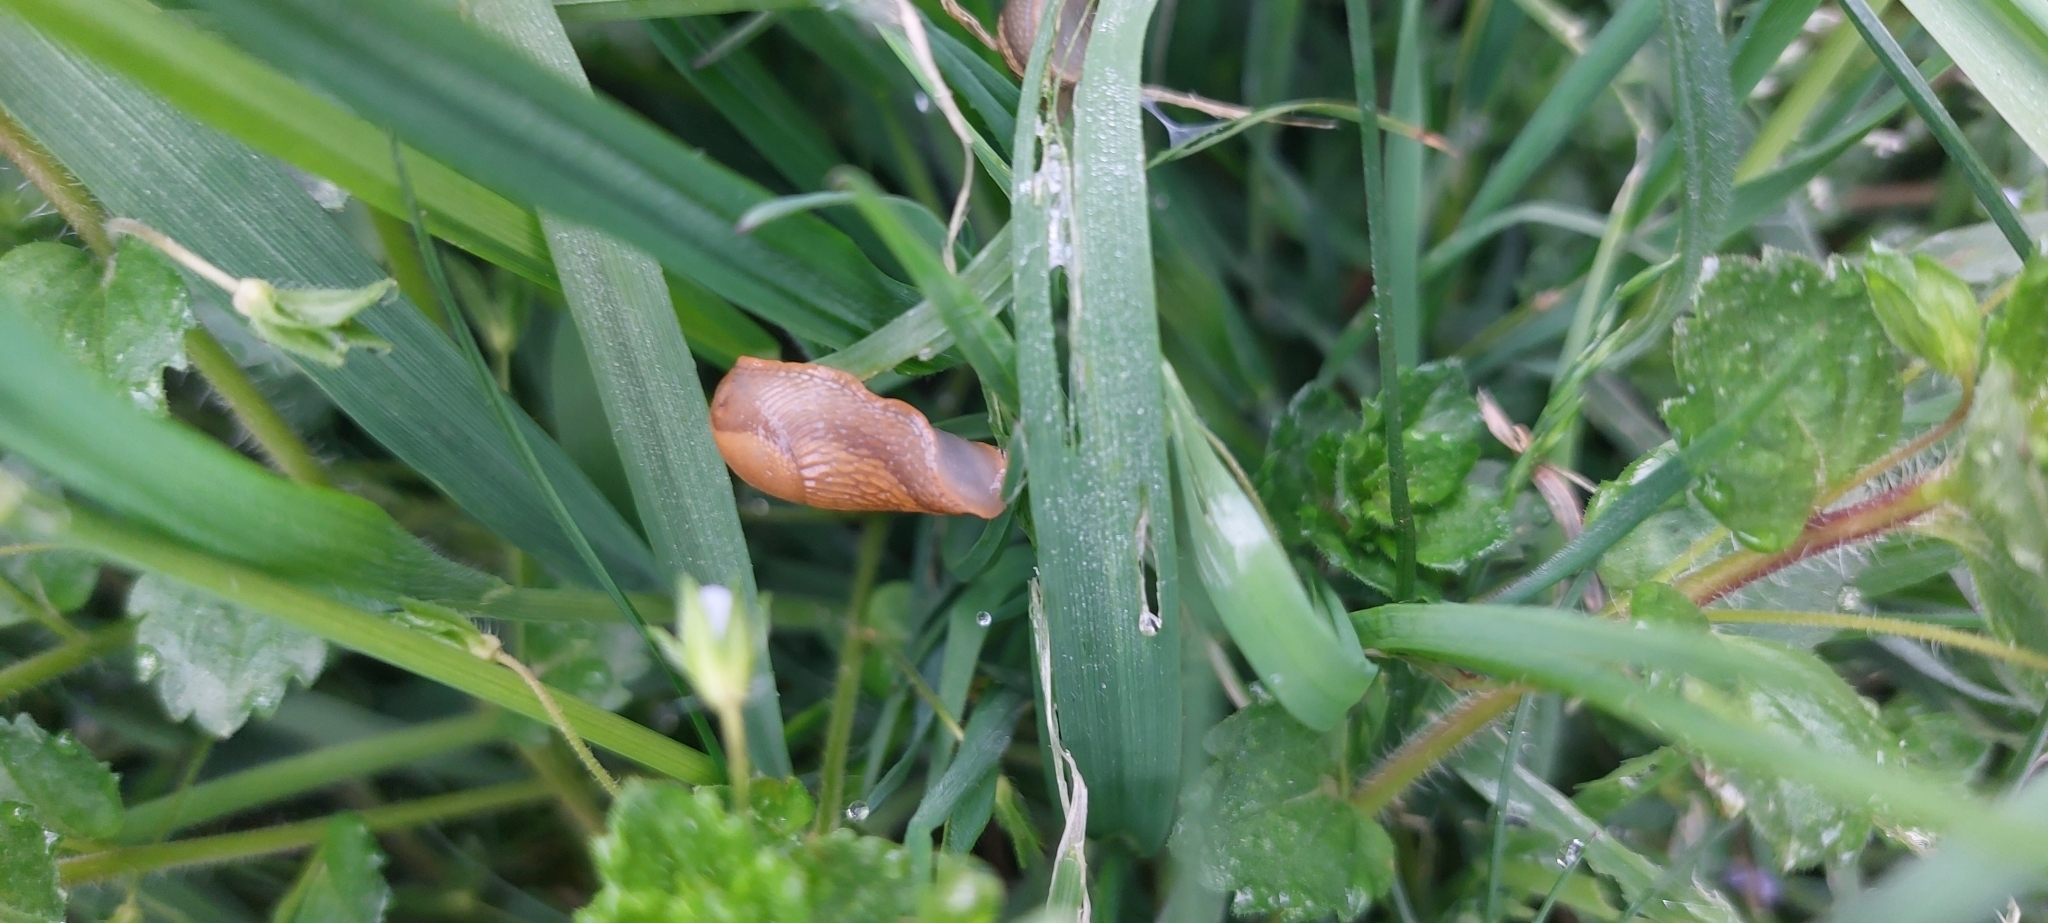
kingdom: Animalia
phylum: Mollusca
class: Gastropoda
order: Stylommatophora
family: Arionidae
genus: Arion
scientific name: Arion vulgaris
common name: Lusitanian slug
